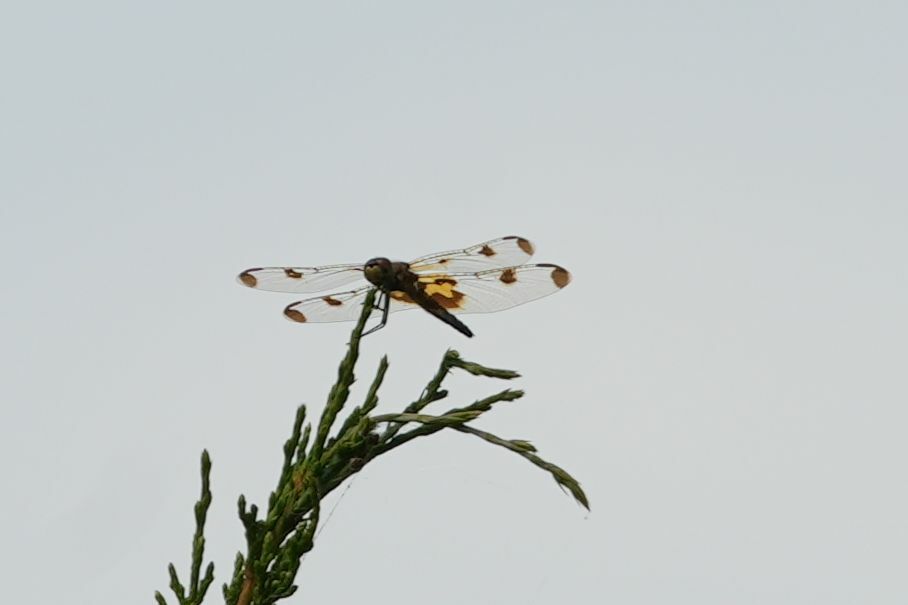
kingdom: Animalia
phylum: Arthropoda
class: Insecta
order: Odonata
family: Libellulidae
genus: Celithemis
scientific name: Celithemis elisa
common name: Calico pennant
